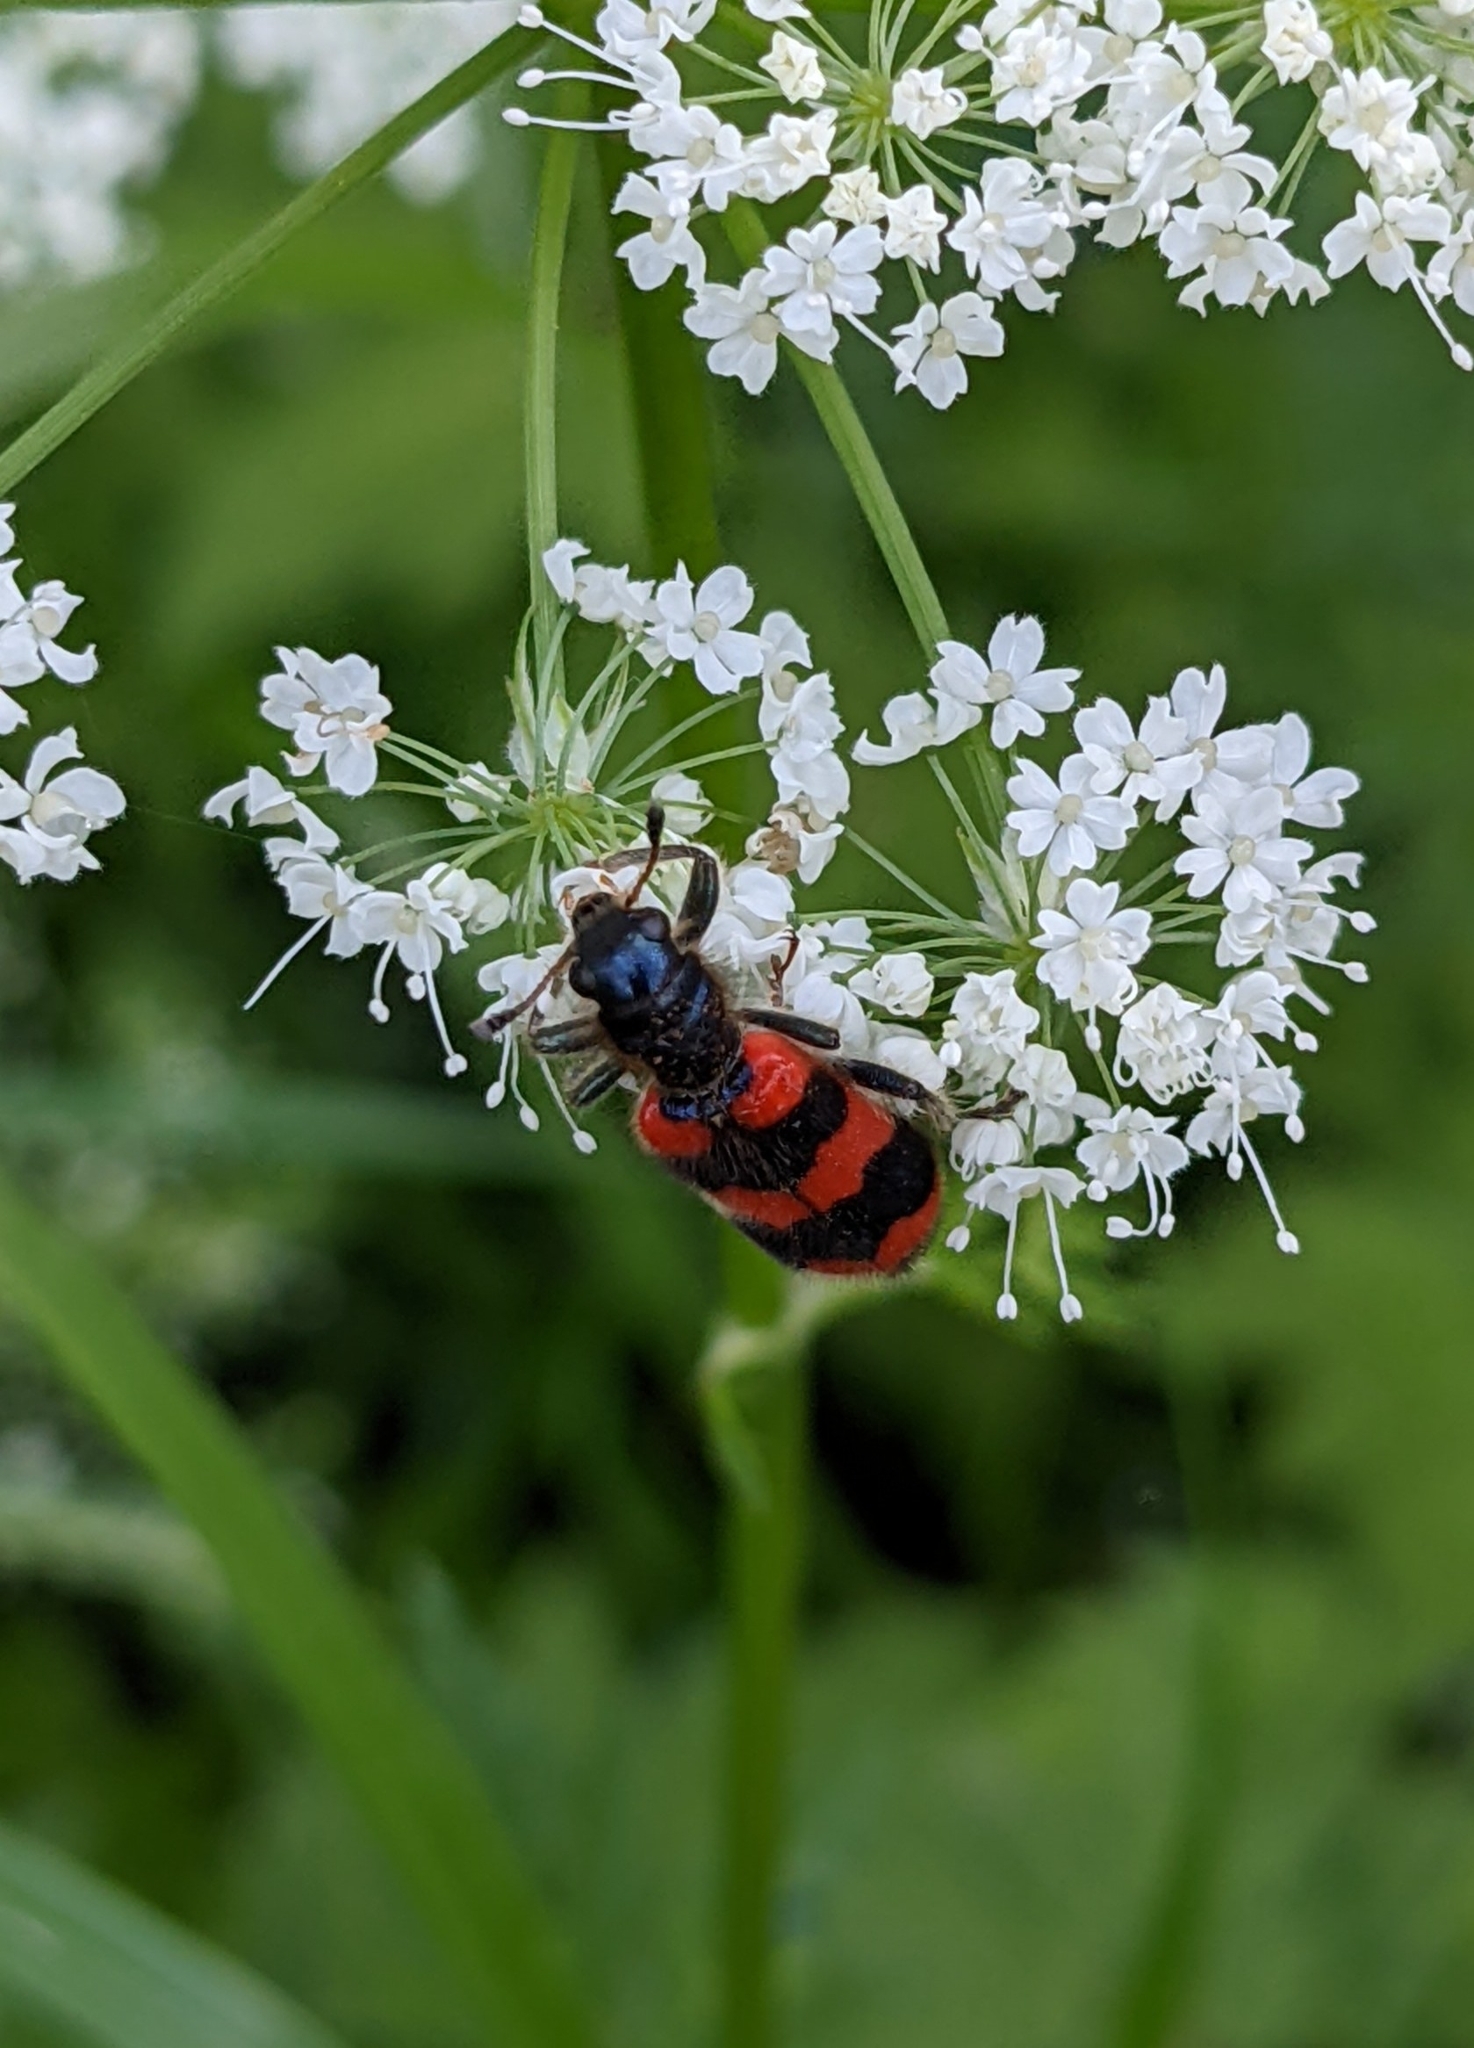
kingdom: Animalia
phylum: Arthropoda
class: Insecta
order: Coleoptera
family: Cleridae
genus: Trichodes
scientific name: Trichodes apiarius
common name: Bee-eating beetle
